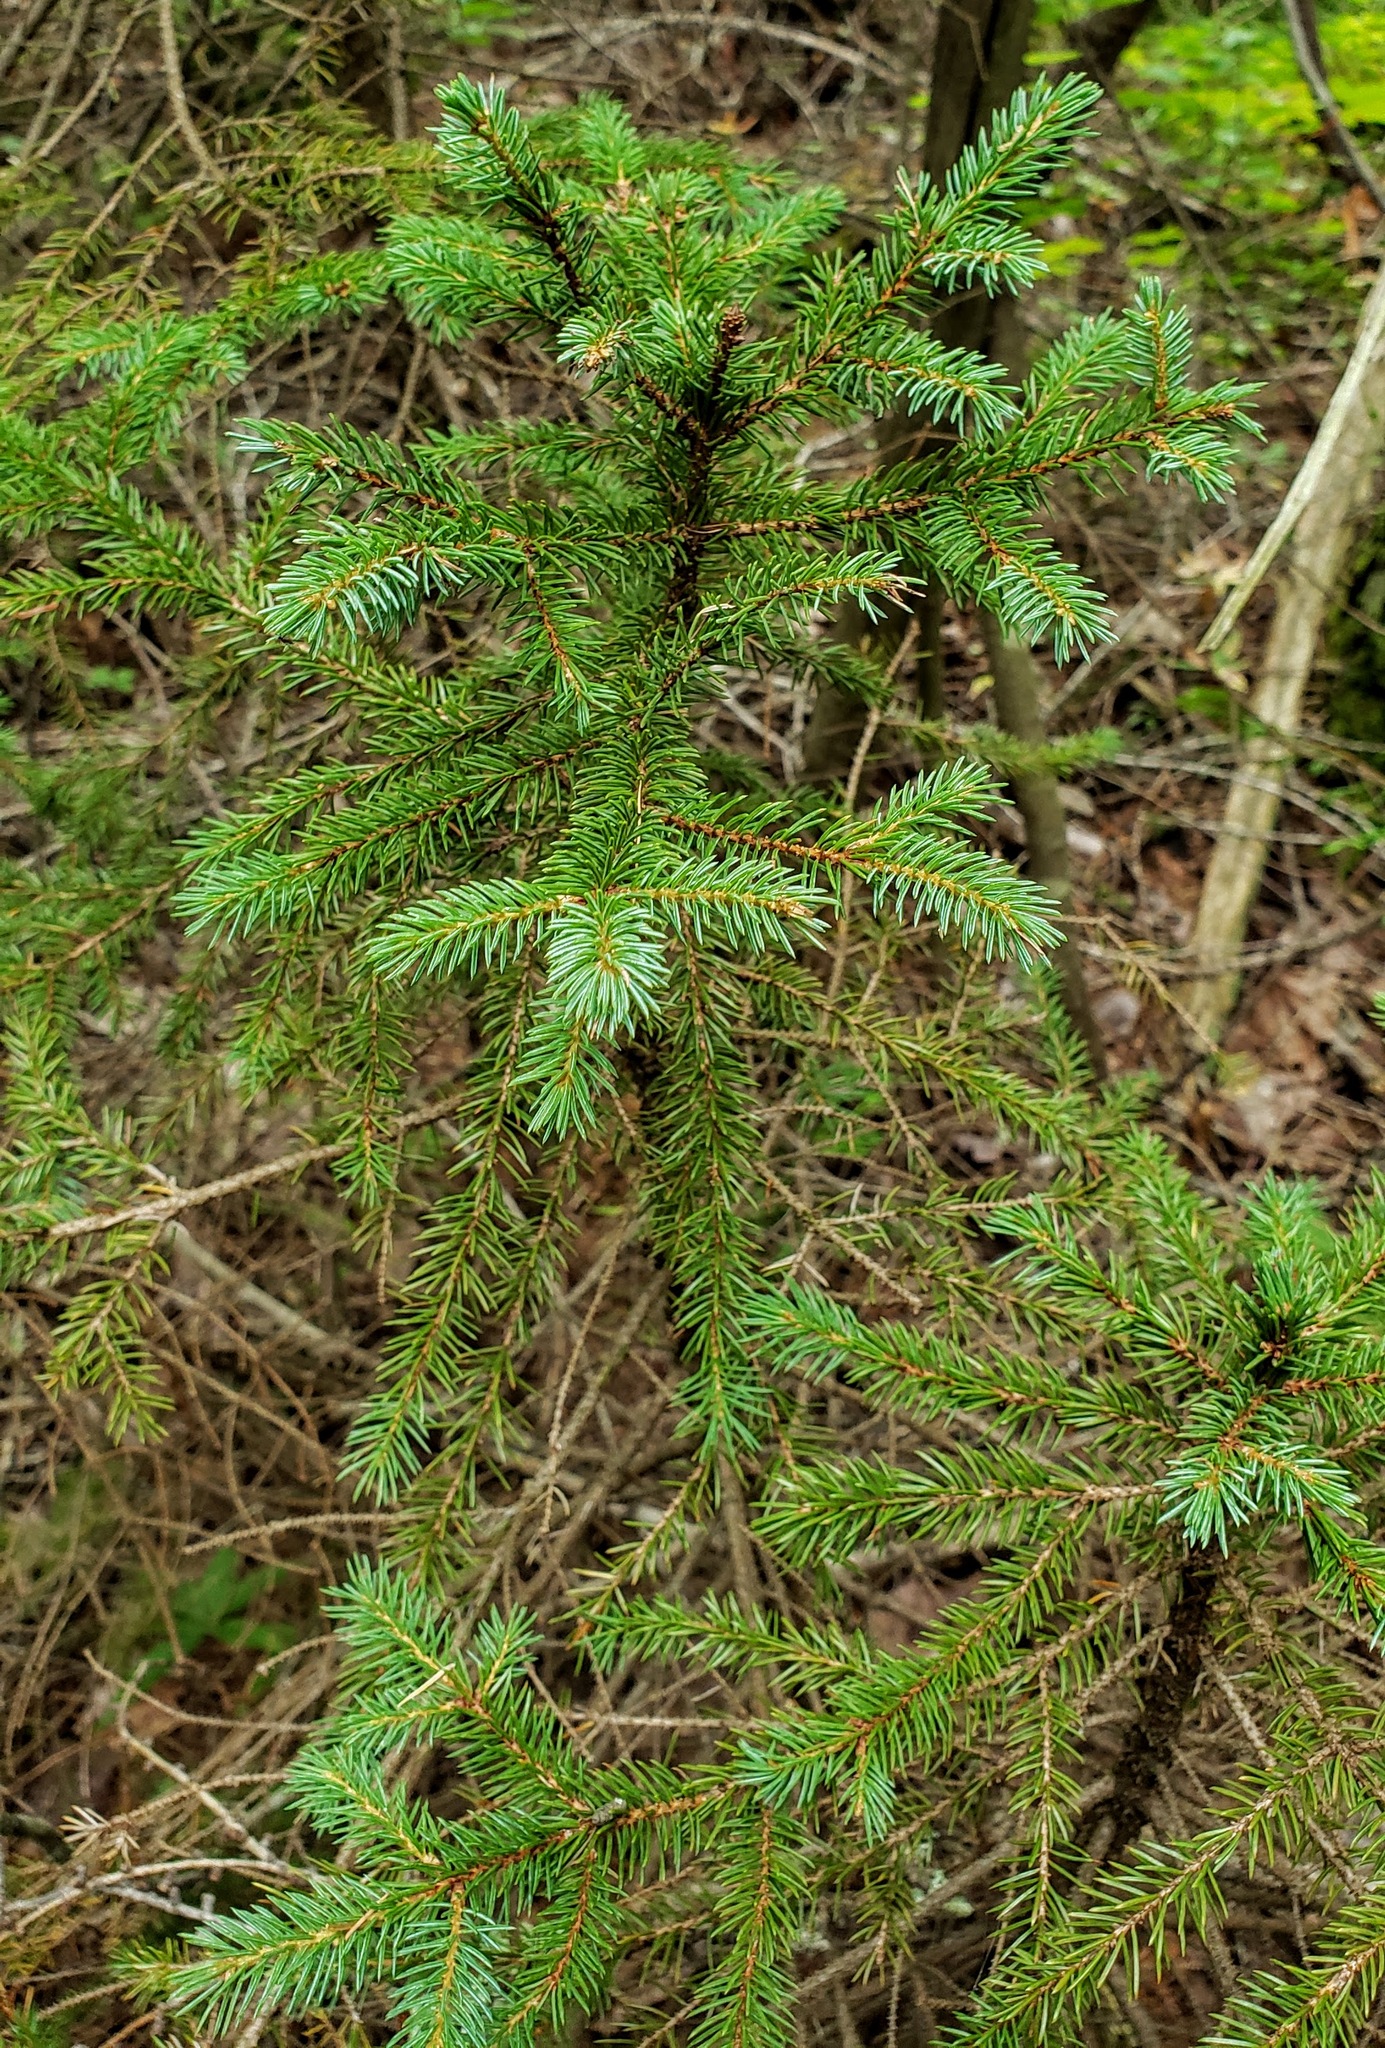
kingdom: Plantae
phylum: Tracheophyta
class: Pinopsida
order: Pinales
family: Pinaceae
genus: Picea
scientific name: Picea mariana
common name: Black spruce
